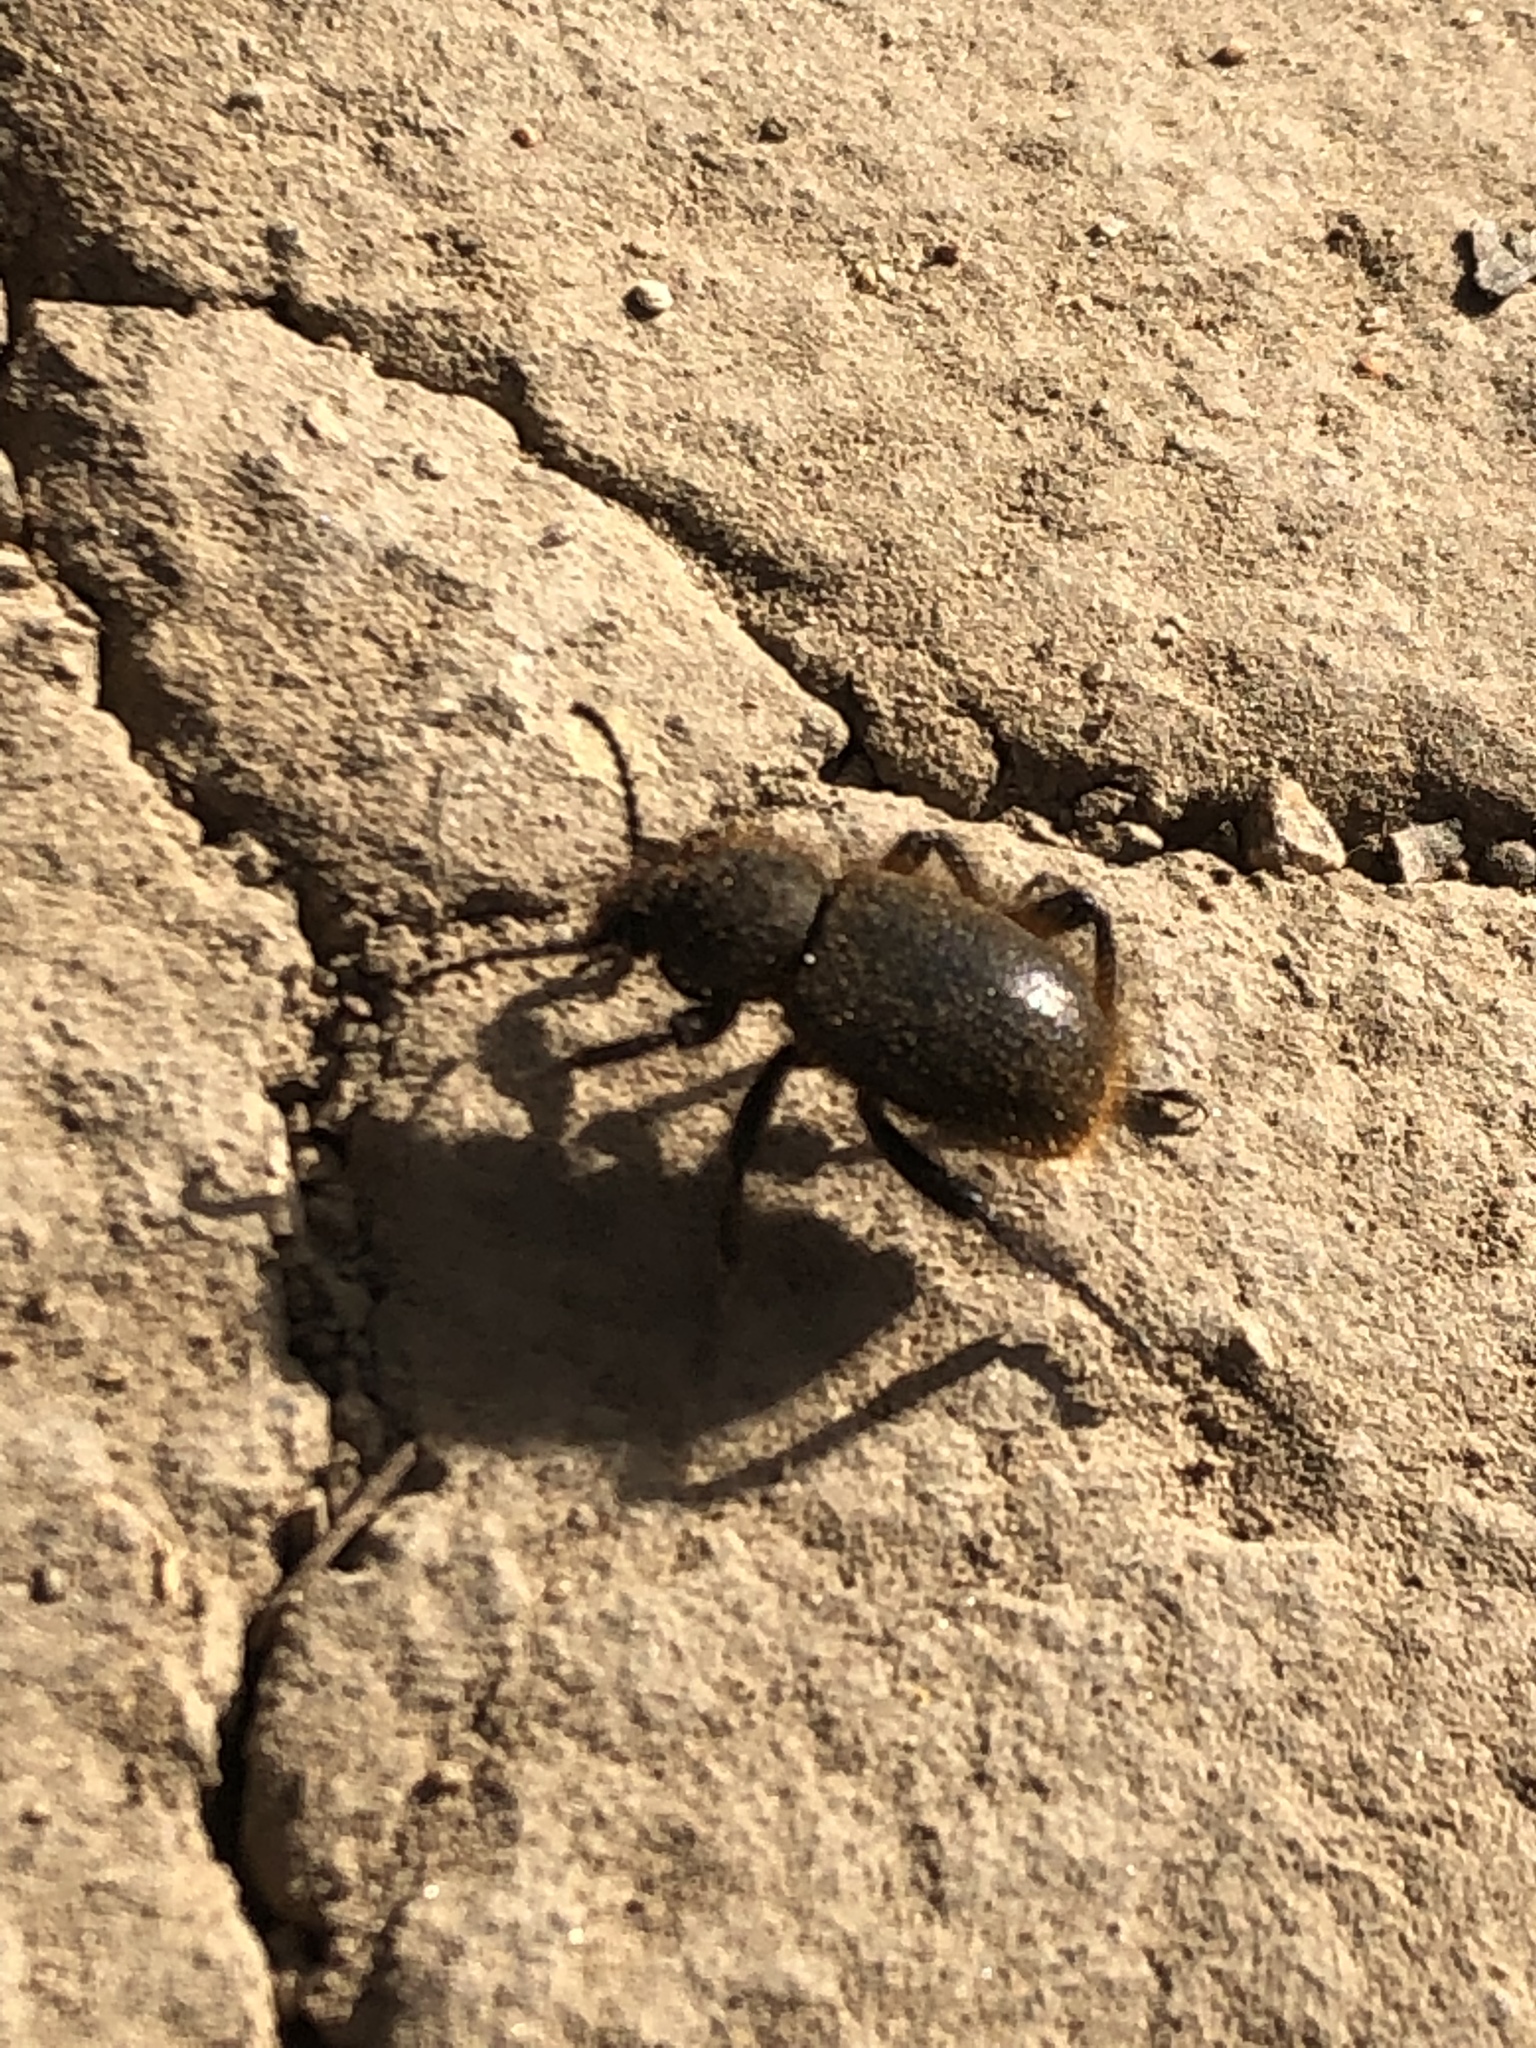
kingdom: Animalia
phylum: Arthropoda
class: Insecta
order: Coleoptera
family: Tenebrionidae
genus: Eleodes
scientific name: Eleodes osculans
